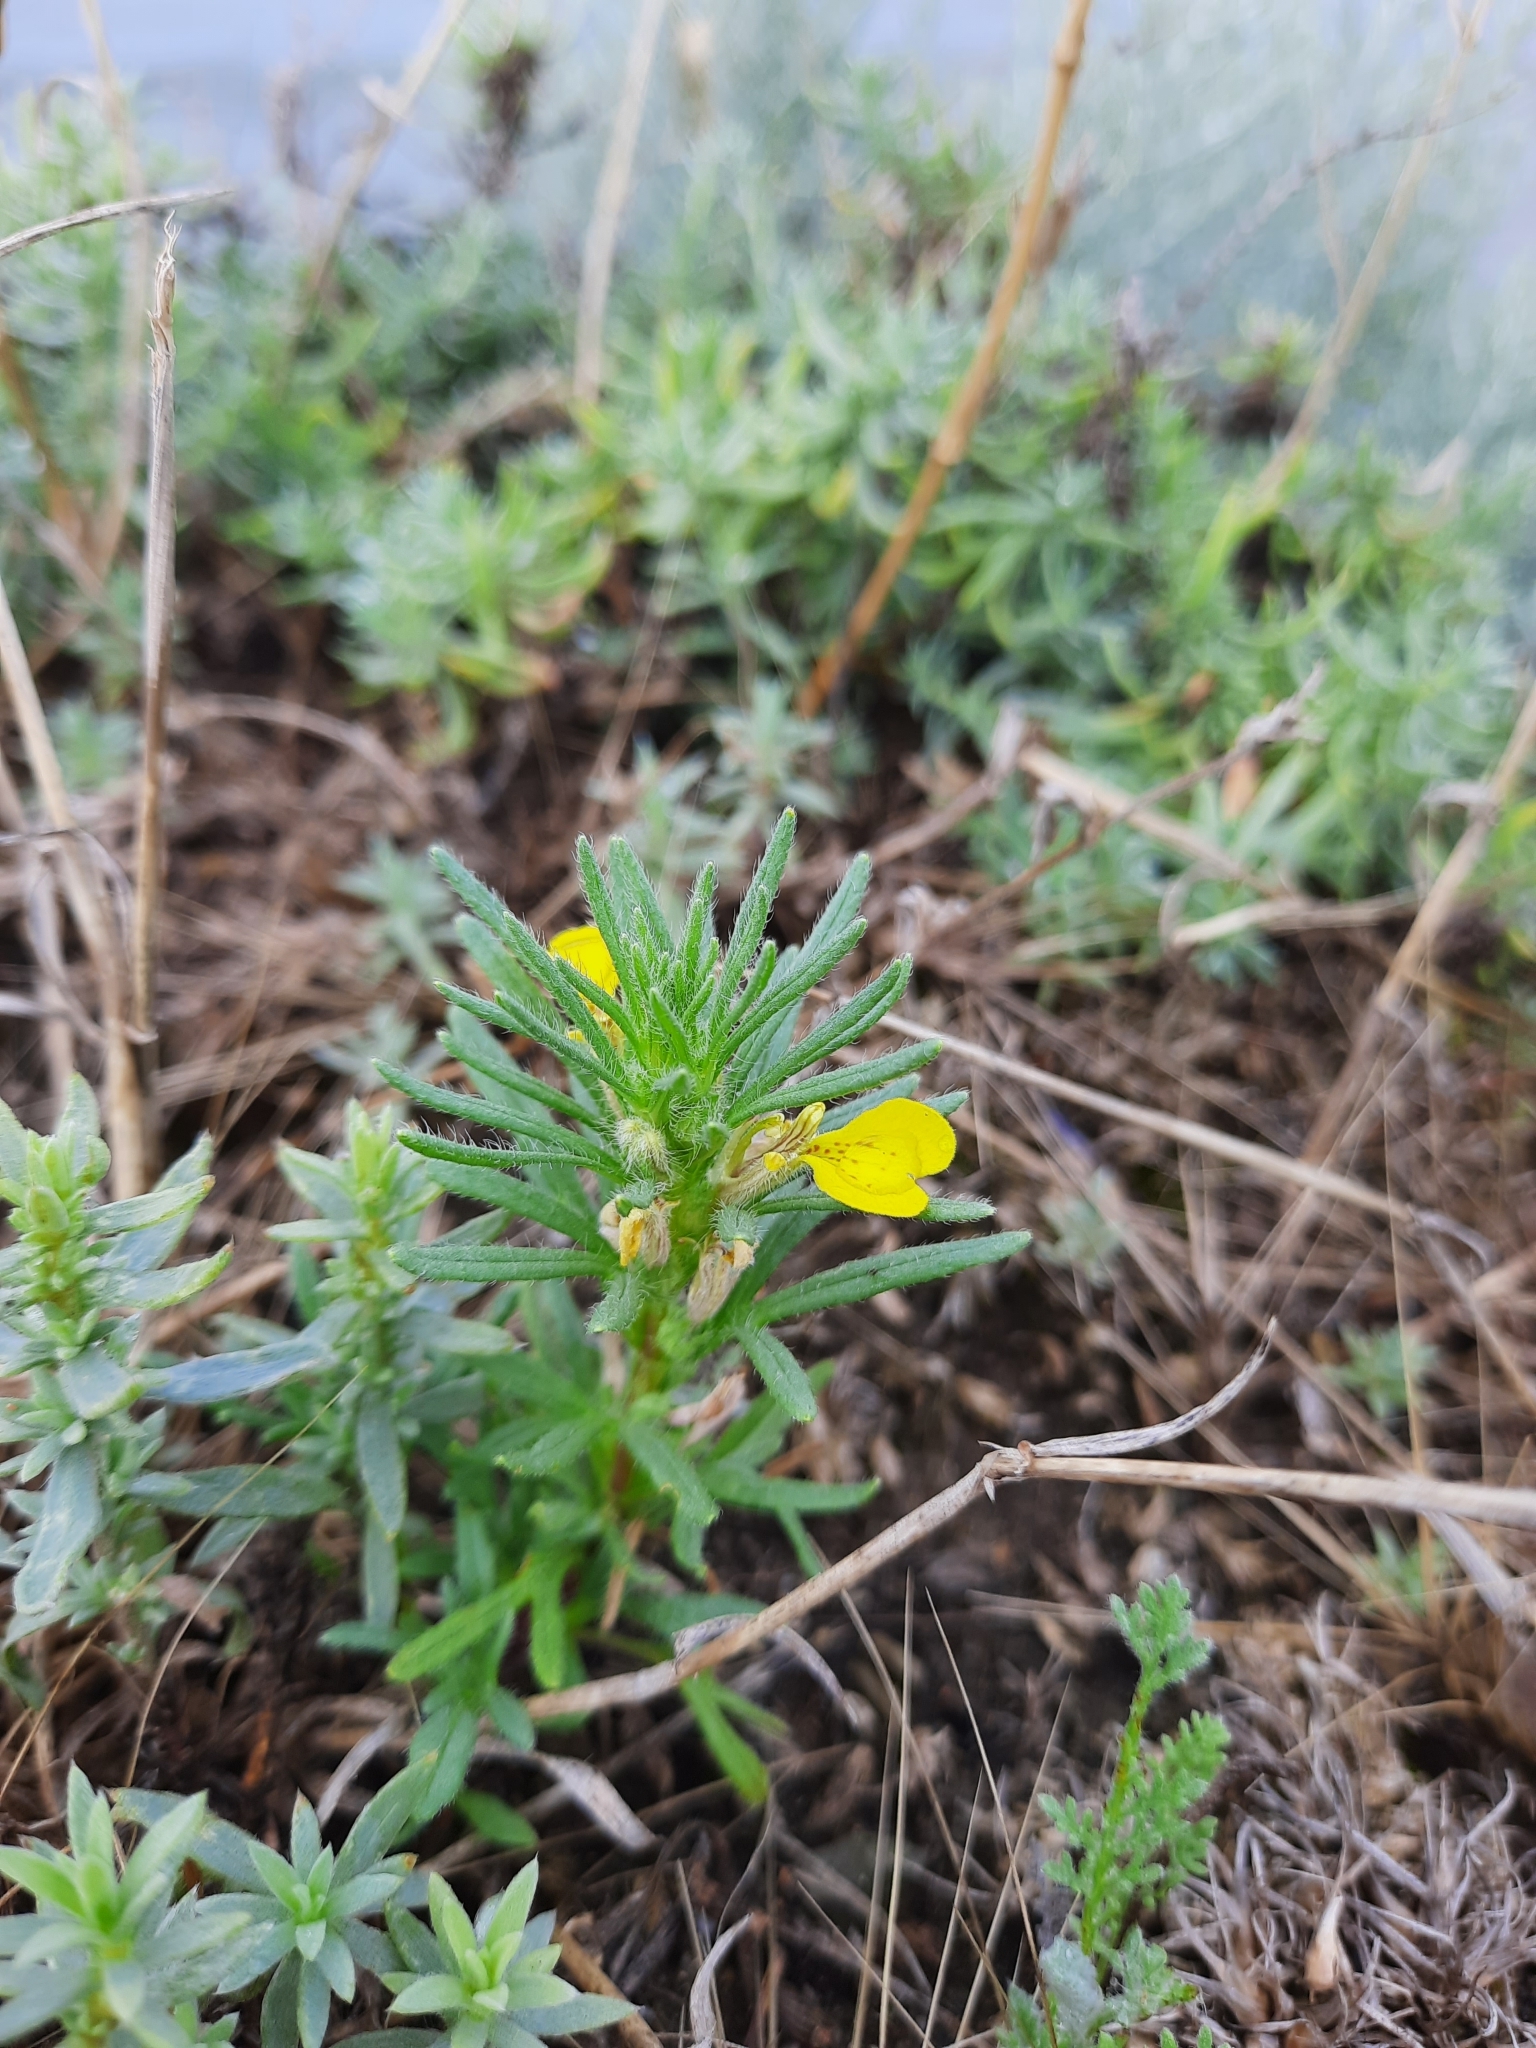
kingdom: Plantae
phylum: Tracheophyta
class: Magnoliopsida
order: Lamiales
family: Lamiaceae
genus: Ajuga
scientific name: Ajuga chamaepitys
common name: Ground-pine
